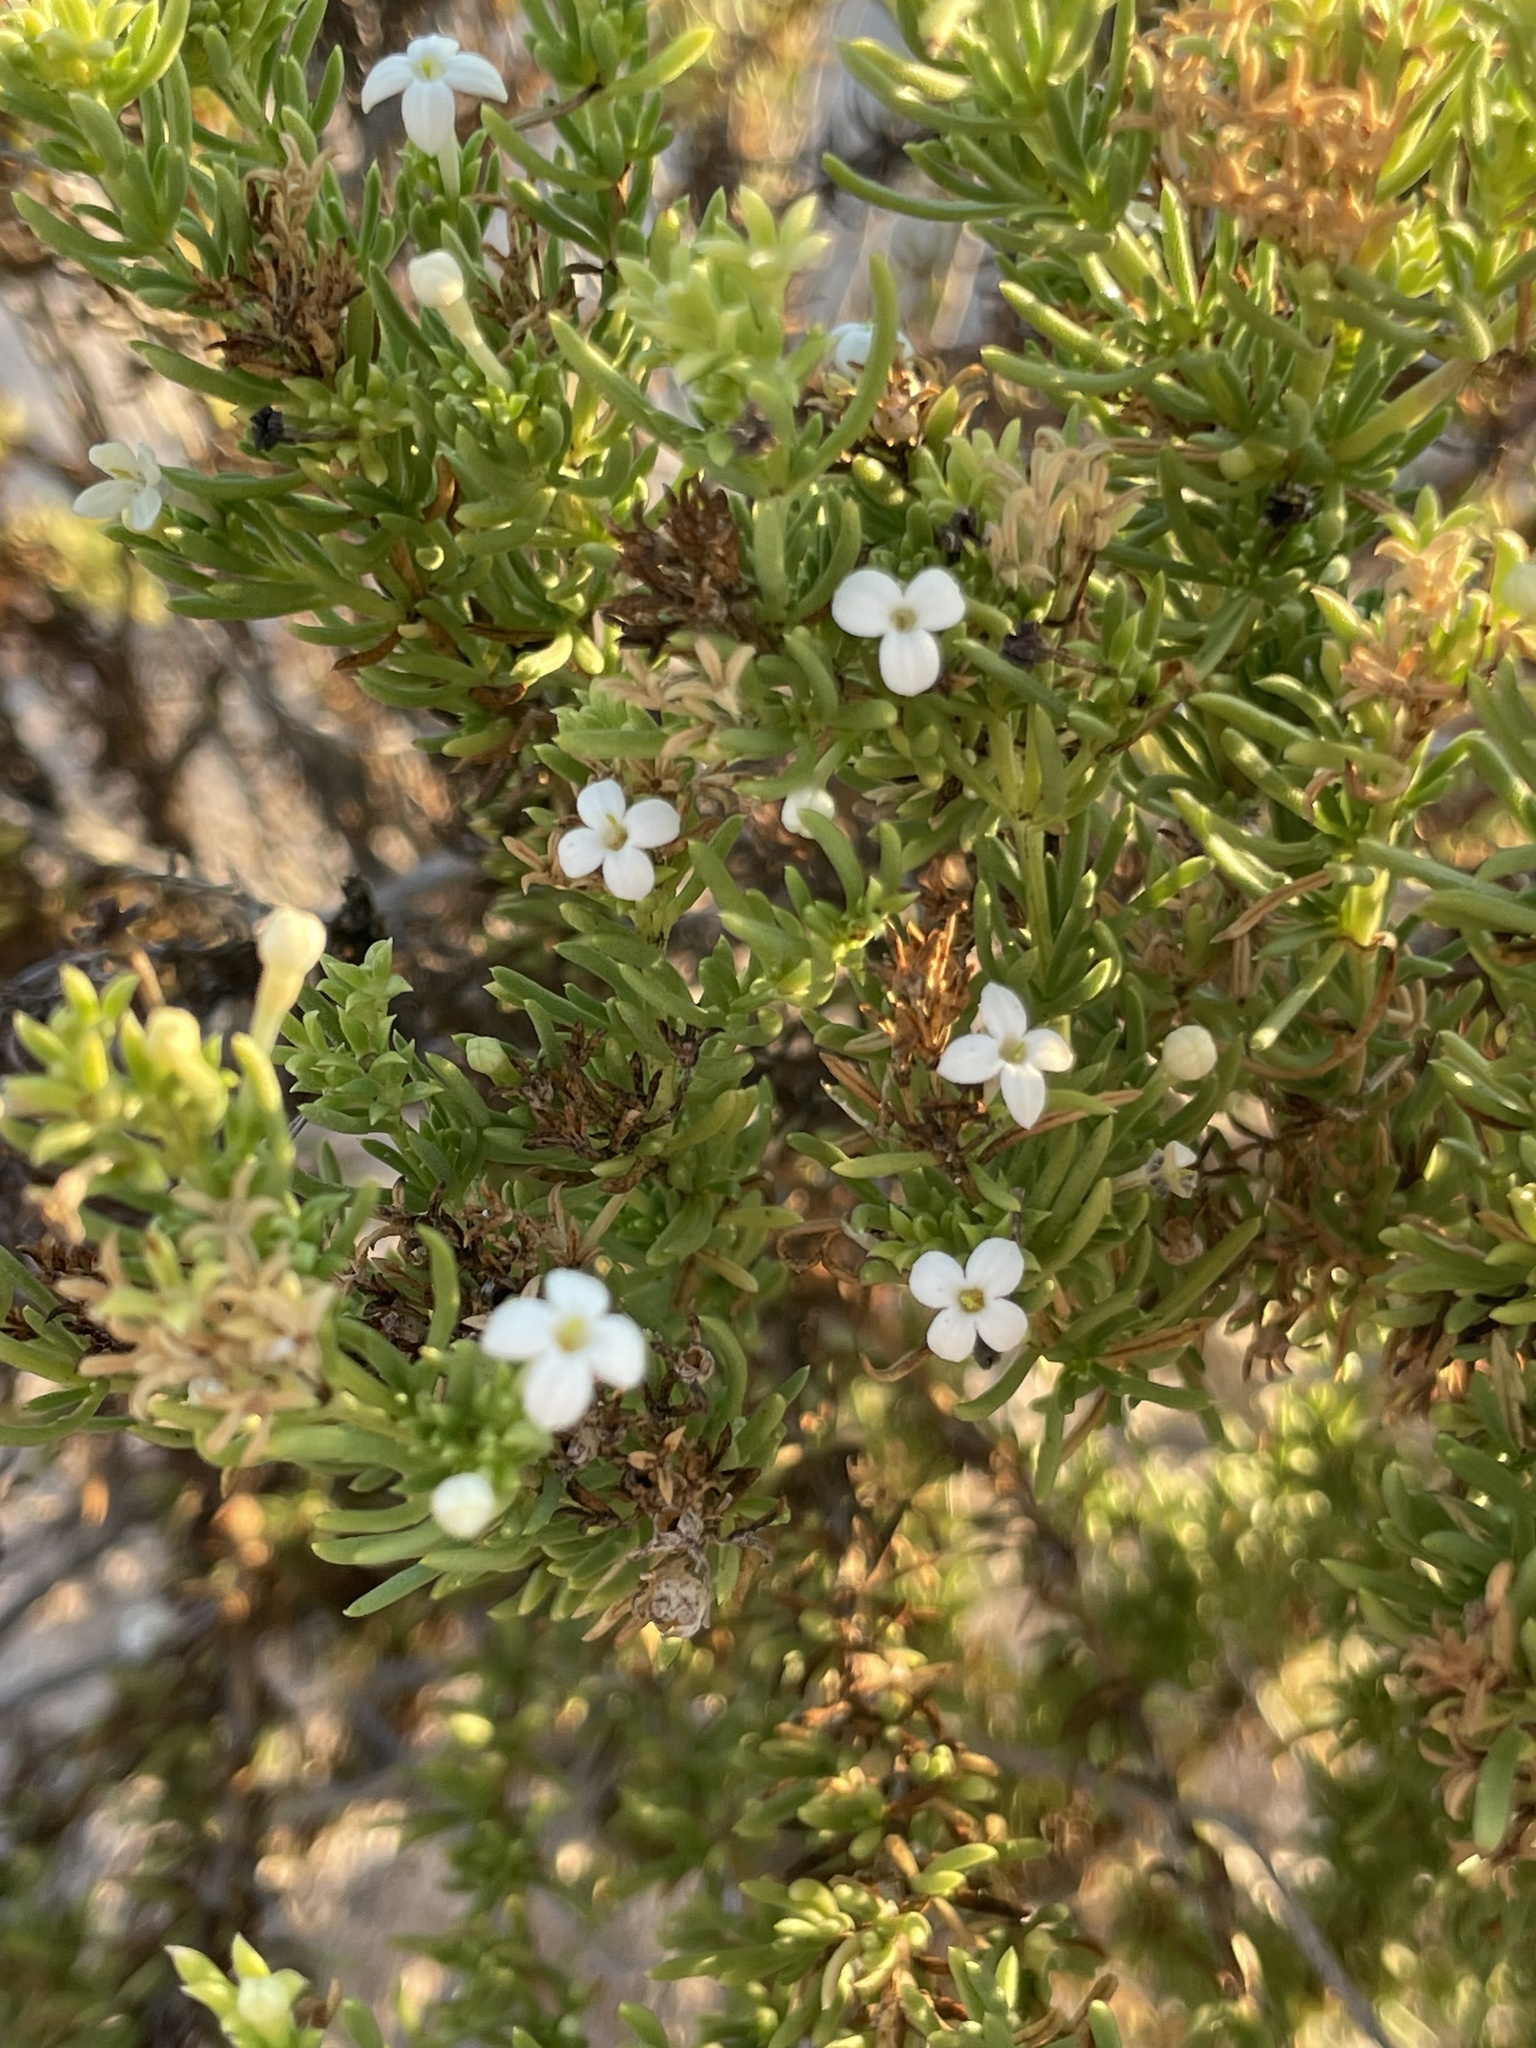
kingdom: Plantae
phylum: Tracheophyta
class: Magnoliopsida
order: Gentianales
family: Rubiaceae
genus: Stenotis
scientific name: Stenotis mucronata
